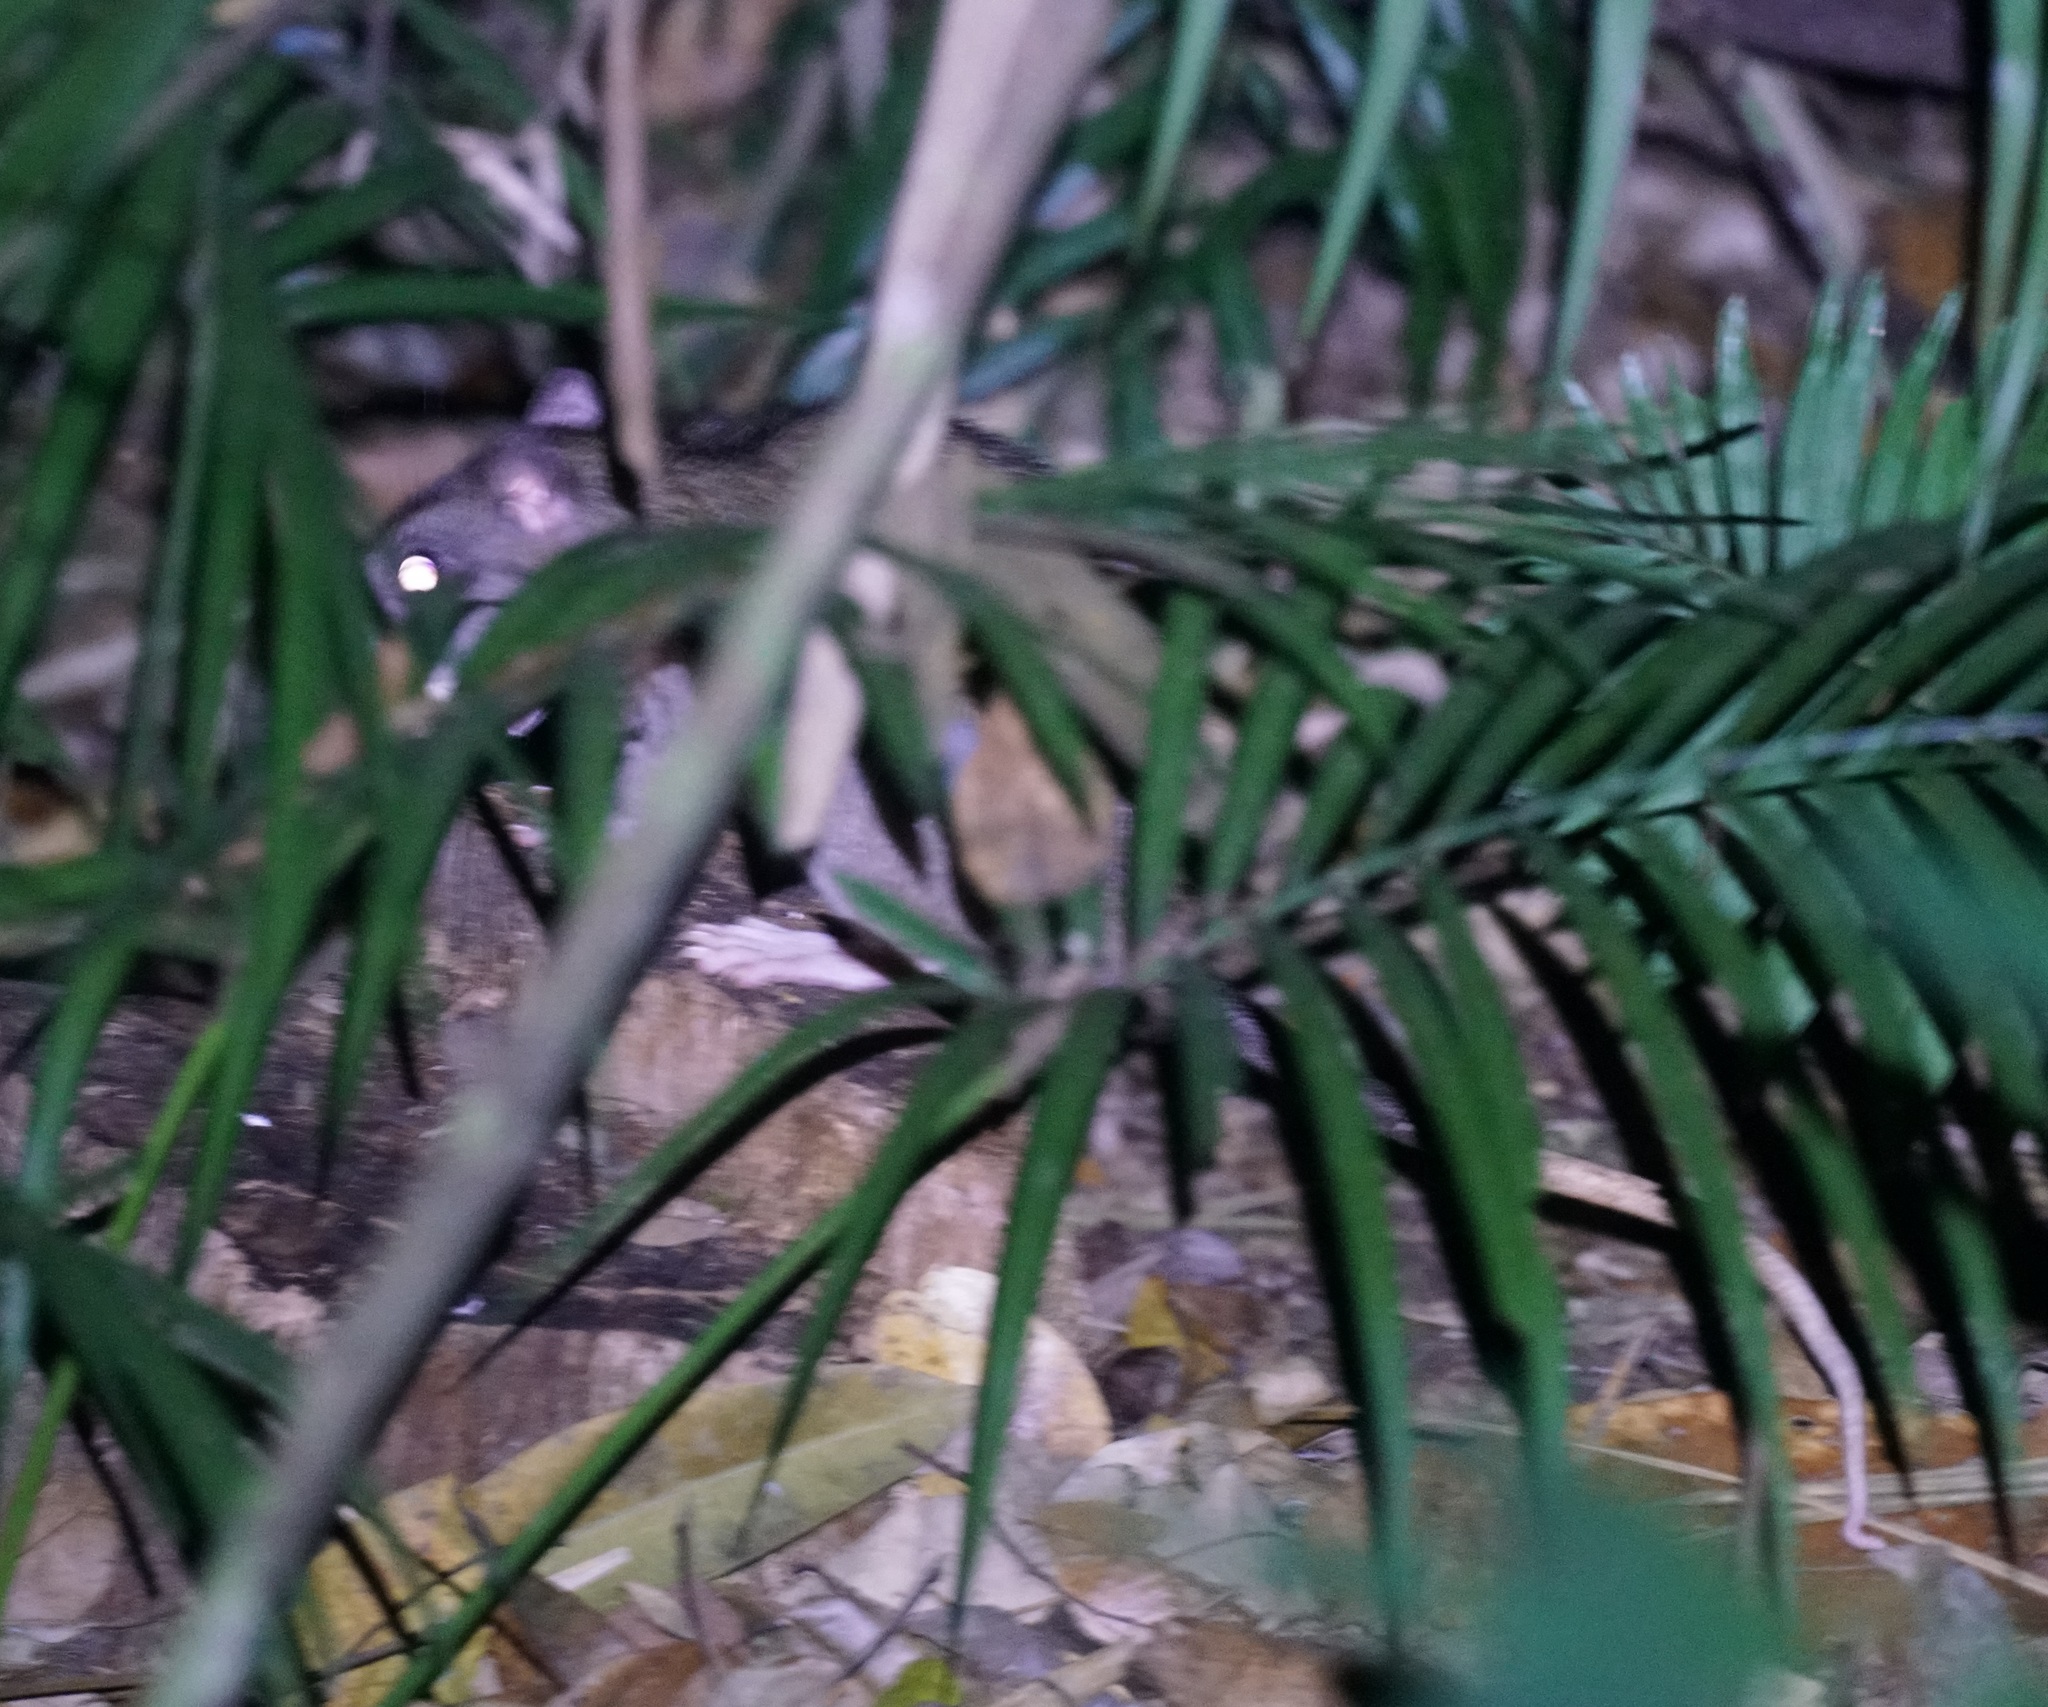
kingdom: Animalia
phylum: Chordata
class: Mammalia
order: Rodentia
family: Muridae
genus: Uromys
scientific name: Uromys caudimaculatus
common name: Giant white-tailed uromys
